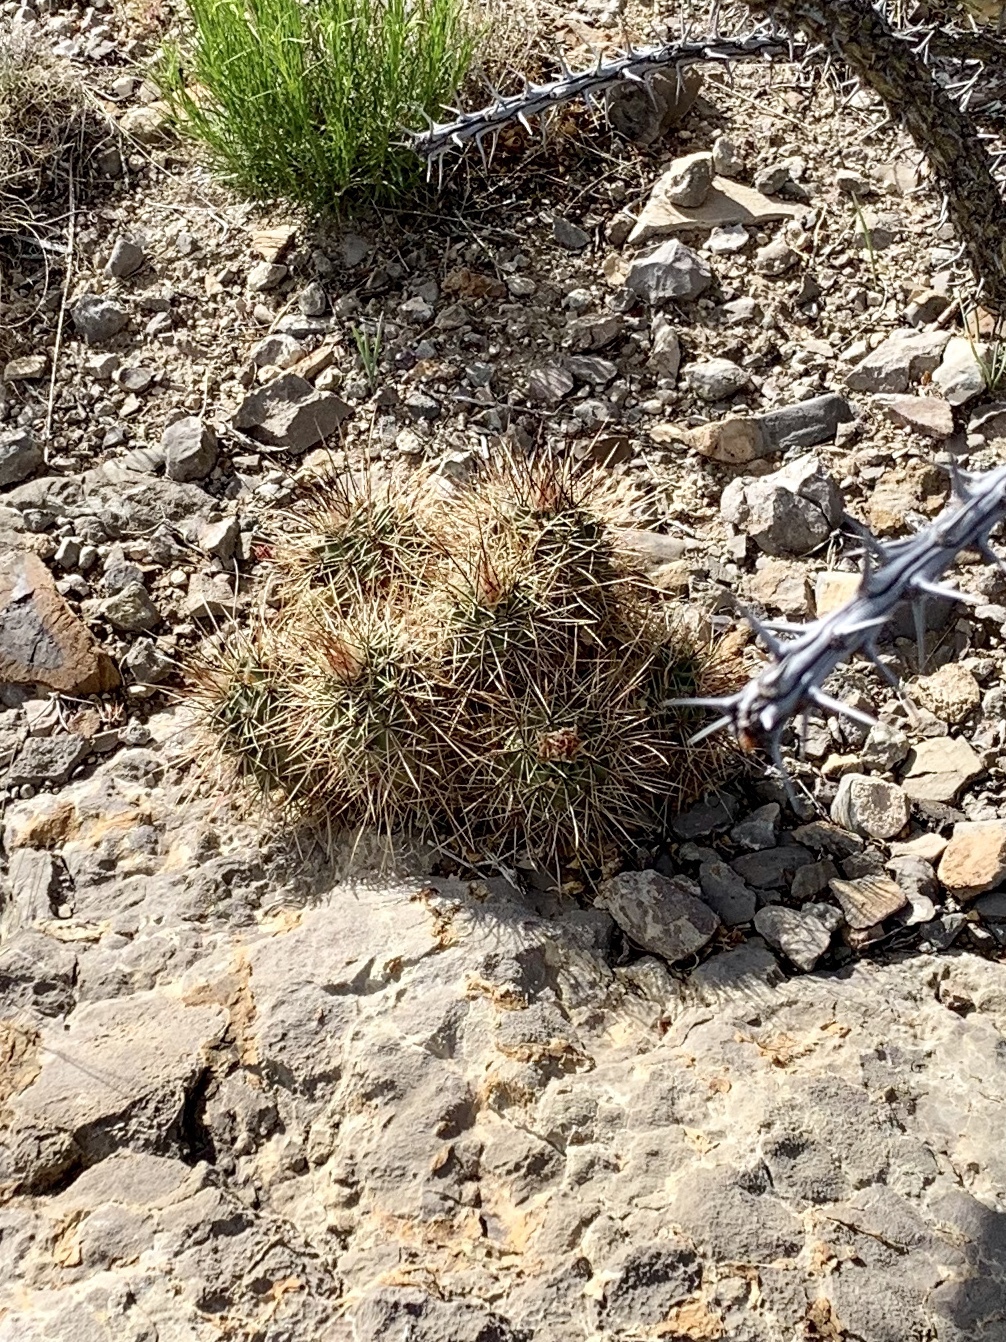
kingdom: Plantae
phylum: Tracheophyta
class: Magnoliopsida
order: Caryophyllales
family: Cactaceae
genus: Echinocereus
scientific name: Echinocereus coccineus
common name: Scarlet hedgehog cactus
